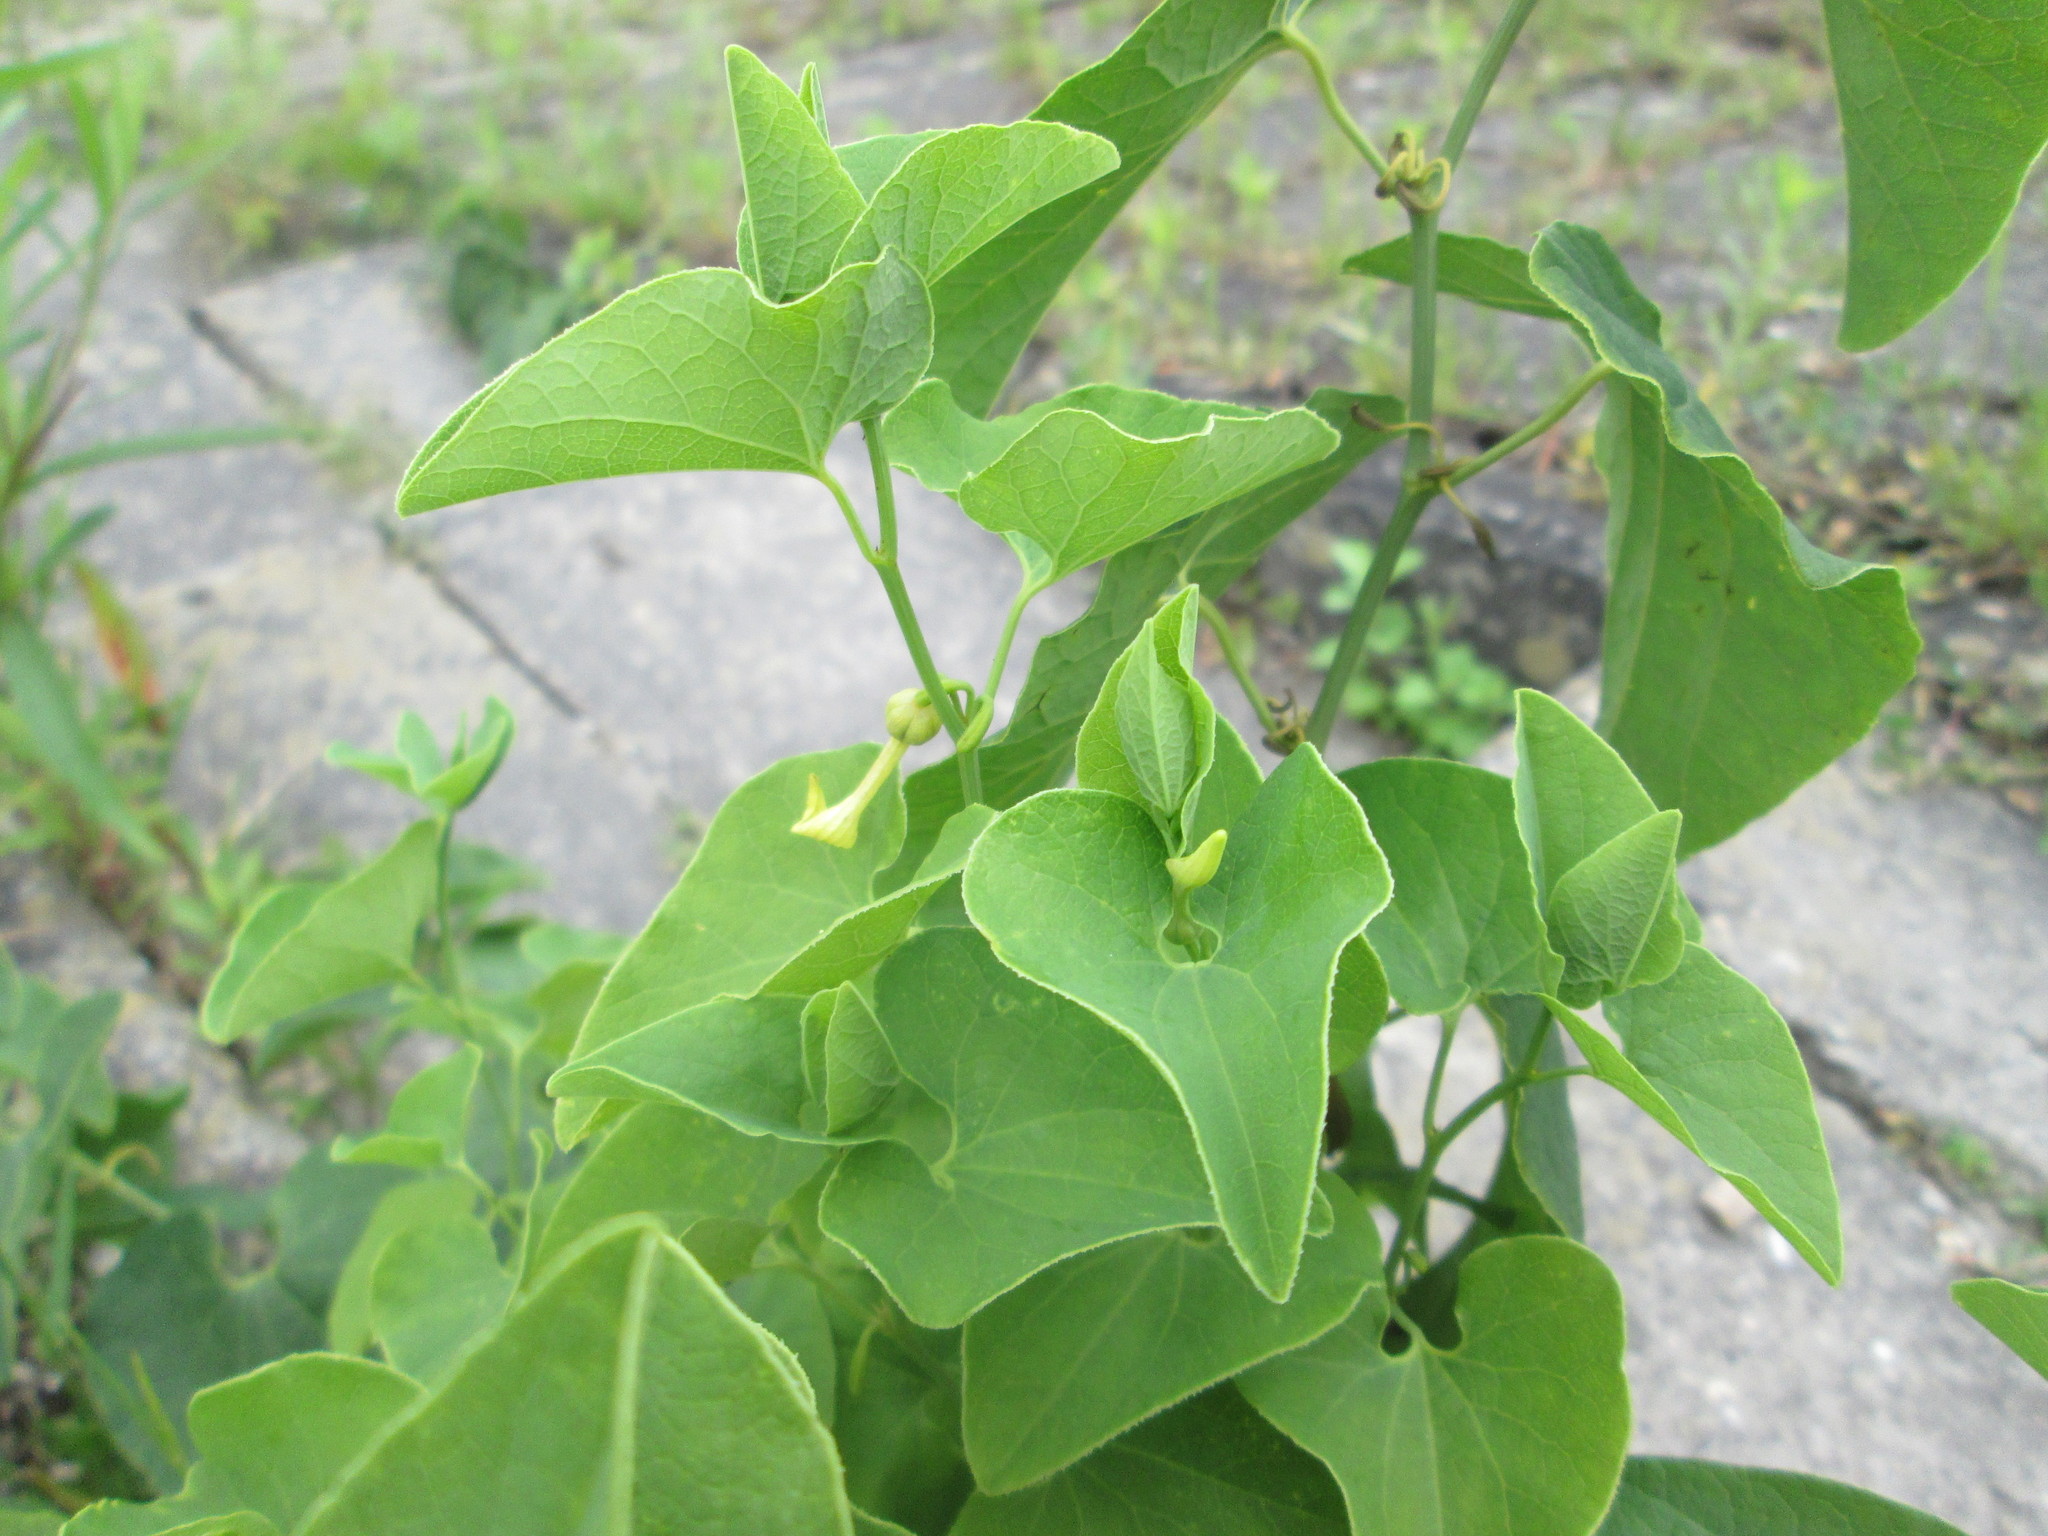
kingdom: Plantae
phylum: Tracheophyta
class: Magnoliopsida
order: Piperales
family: Aristolochiaceae
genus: Aristolochia
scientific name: Aristolochia clematitis
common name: Birthwort
